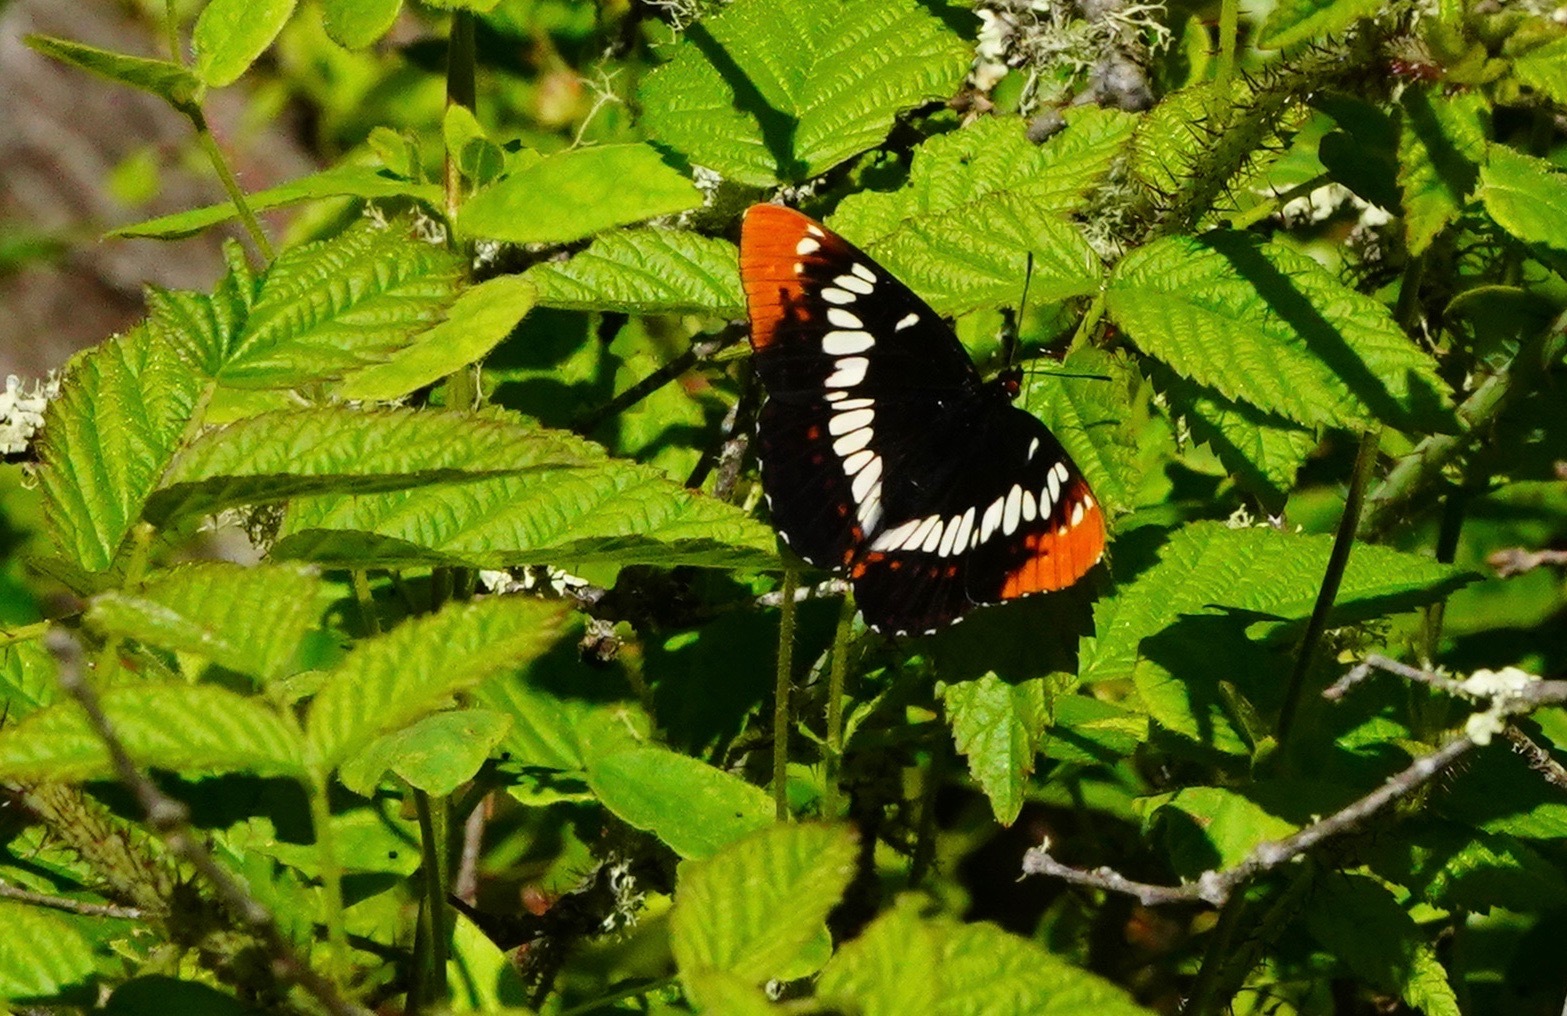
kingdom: Animalia
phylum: Arthropoda
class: Insecta
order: Lepidoptera
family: Nymphalidae
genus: Limenitis
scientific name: Limenitis lorquini
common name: Lorquin's admiral
